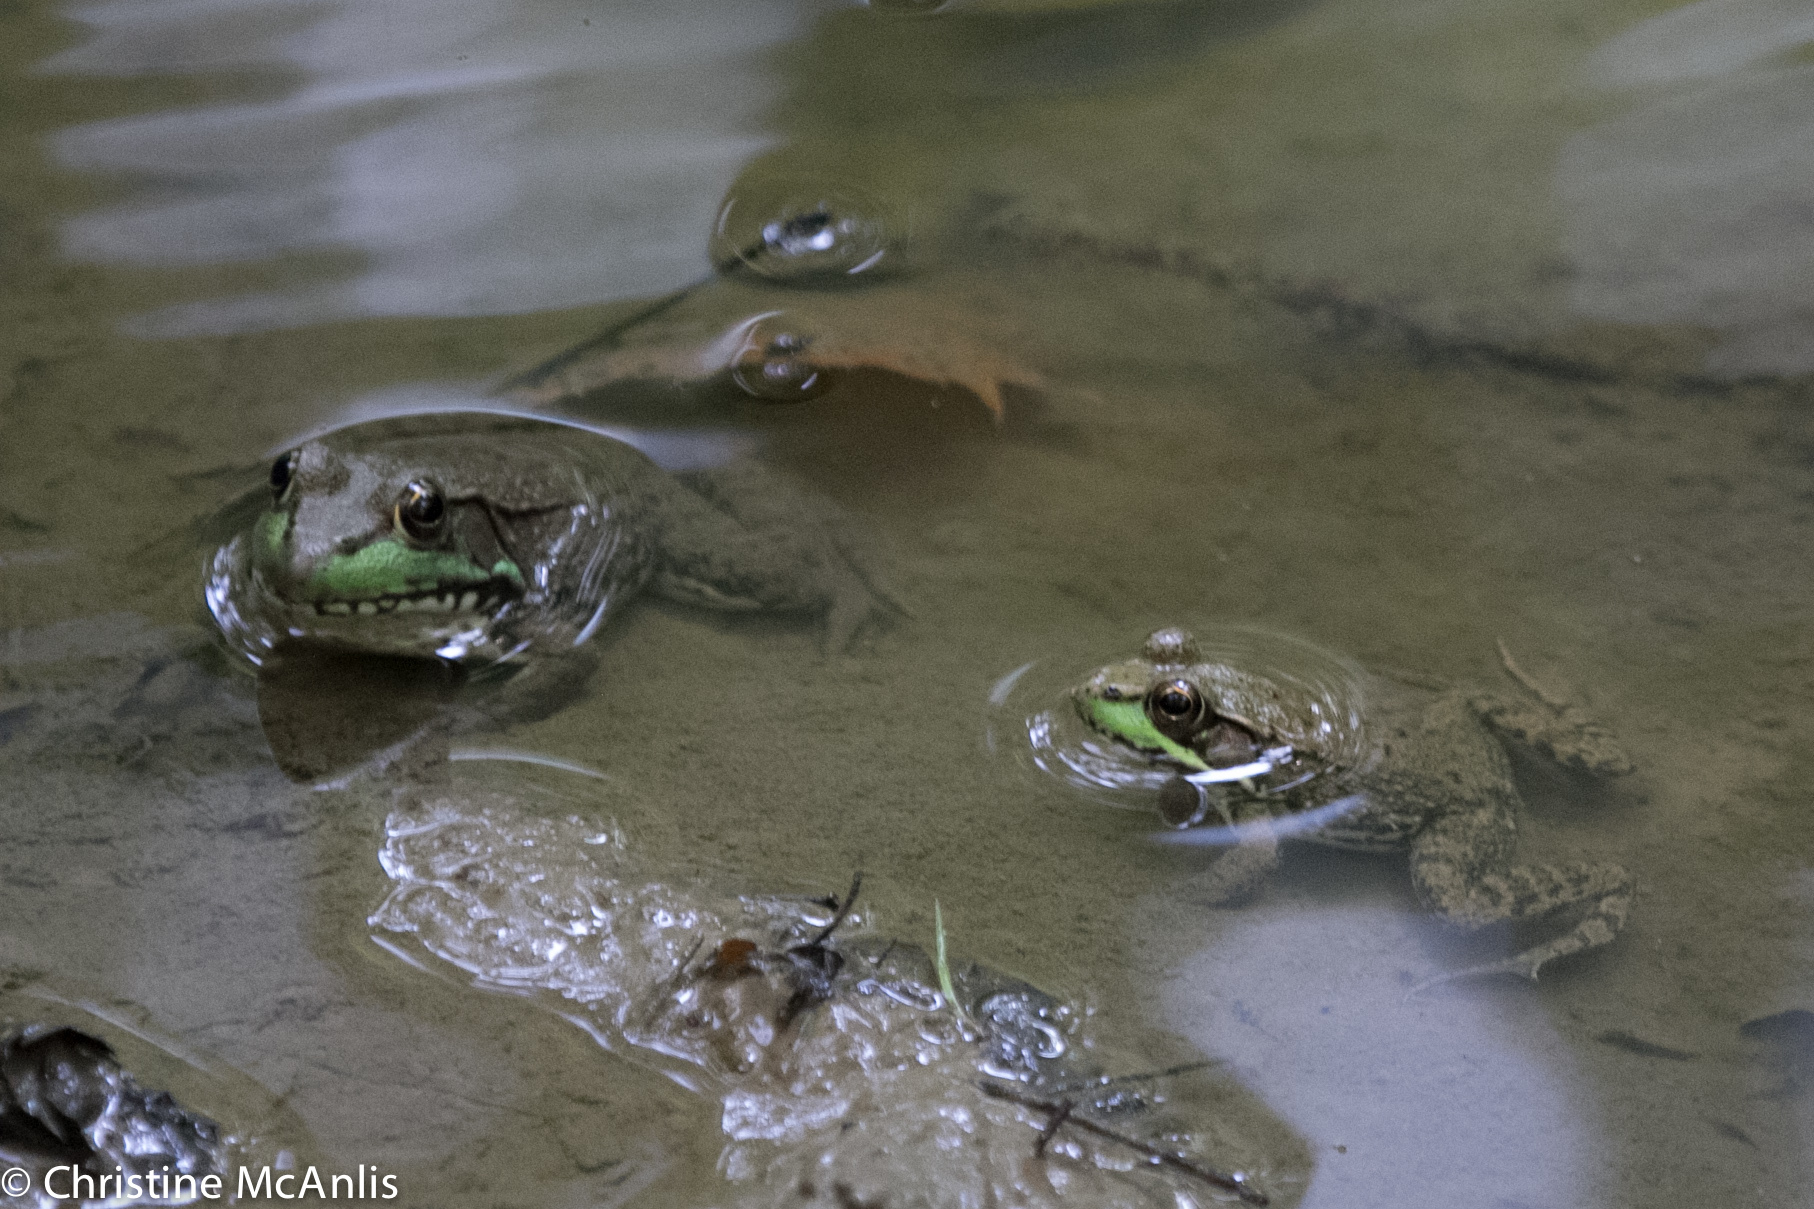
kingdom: Animalia
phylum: Chordata
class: Amphibia
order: Anura
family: Ranidae
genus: Lithobates
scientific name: Lithobates clamitans
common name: Green frog
